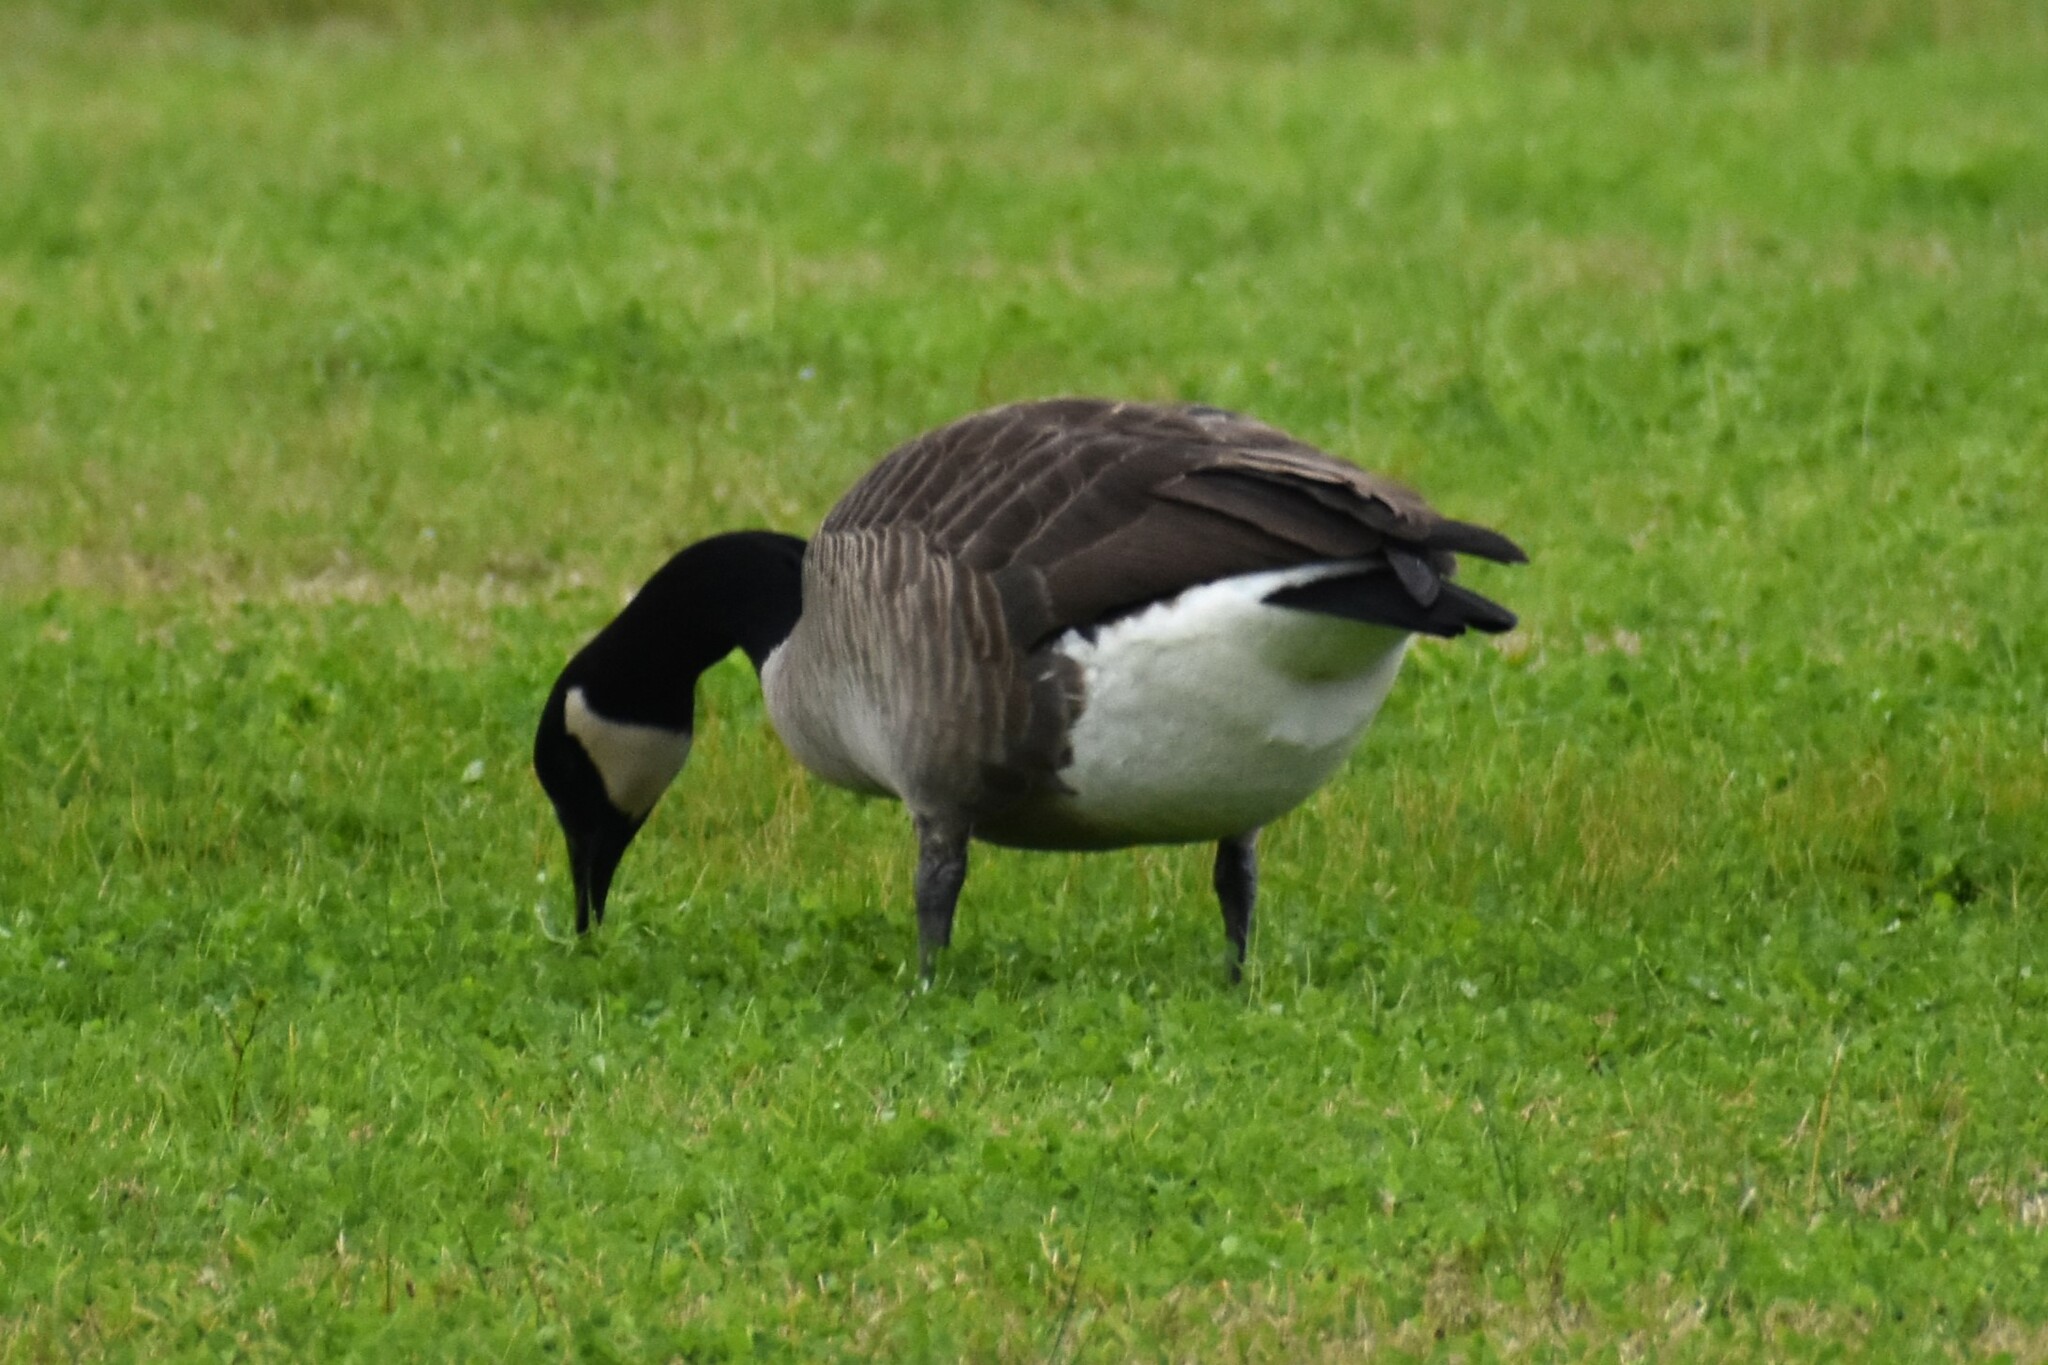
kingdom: Animalia
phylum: Chordata
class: Aves
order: Anseriformes
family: Anatidae
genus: Branta
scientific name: Branta canadensis
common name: Canada goose
